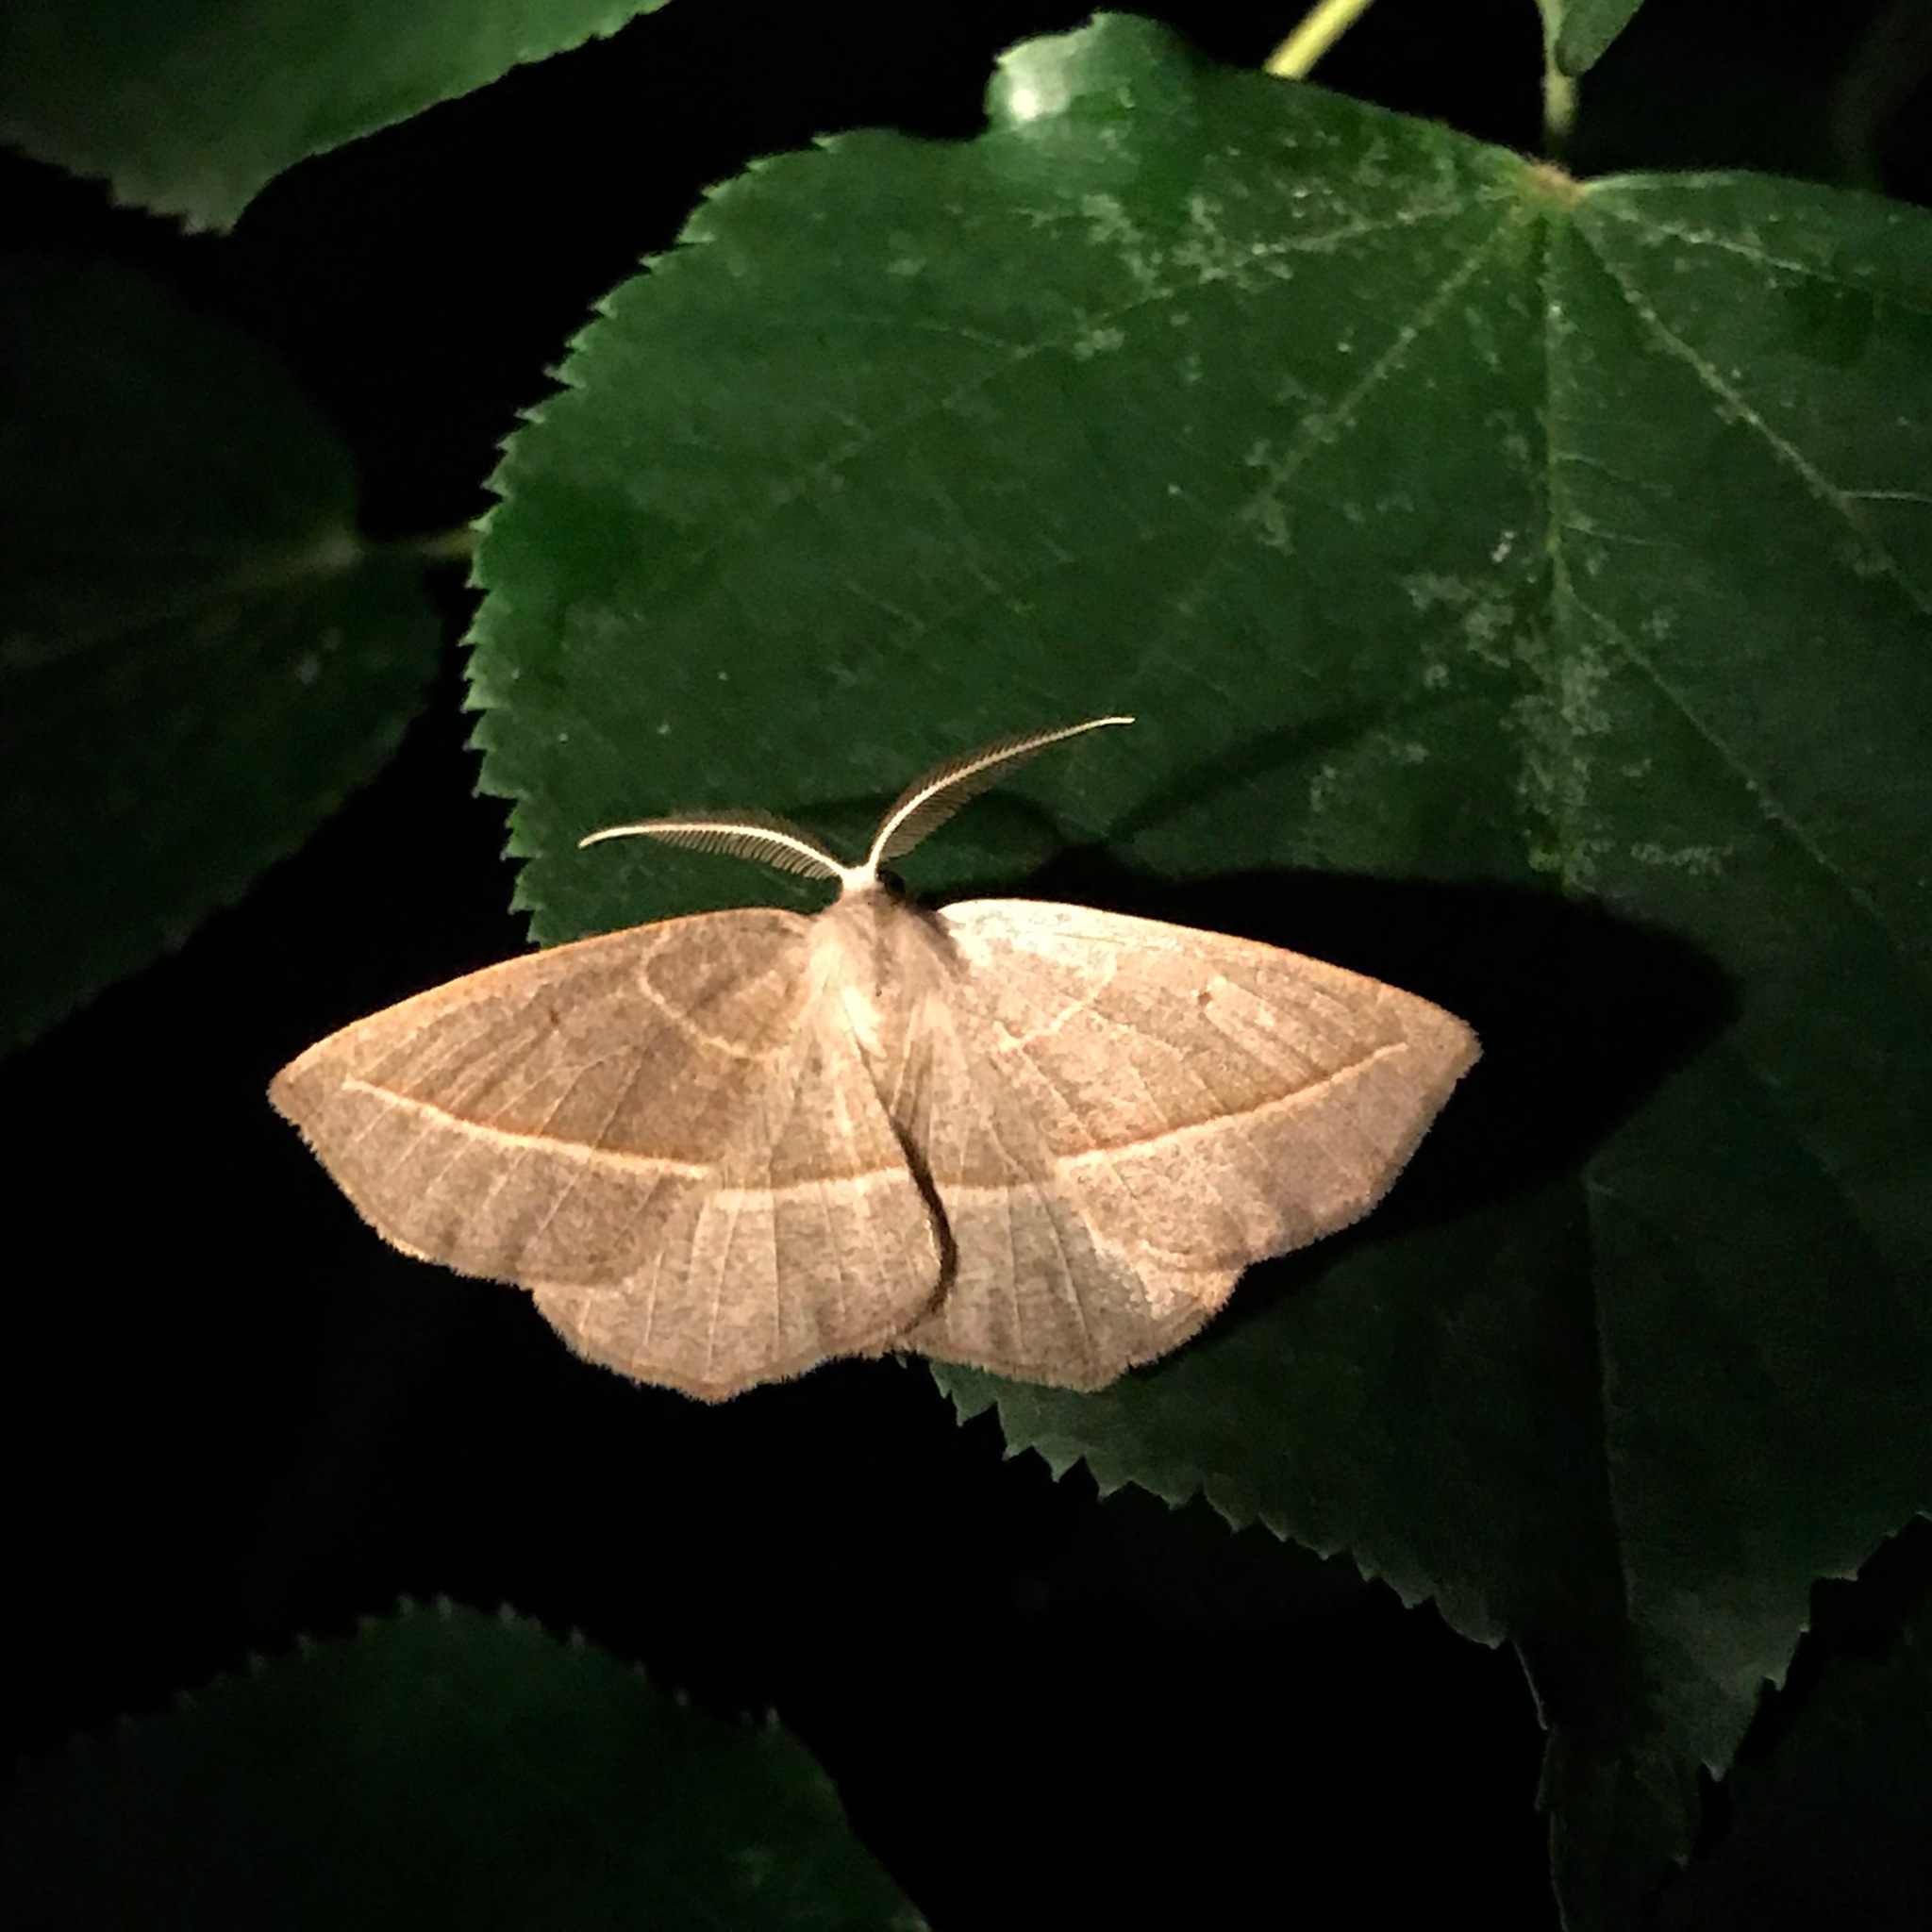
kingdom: Animalia
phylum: Arthropoda
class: Insecta
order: Lepidoptera
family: Geometridae
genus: Eusarca
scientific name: Eusarca confusaria
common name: Confused eusarca
